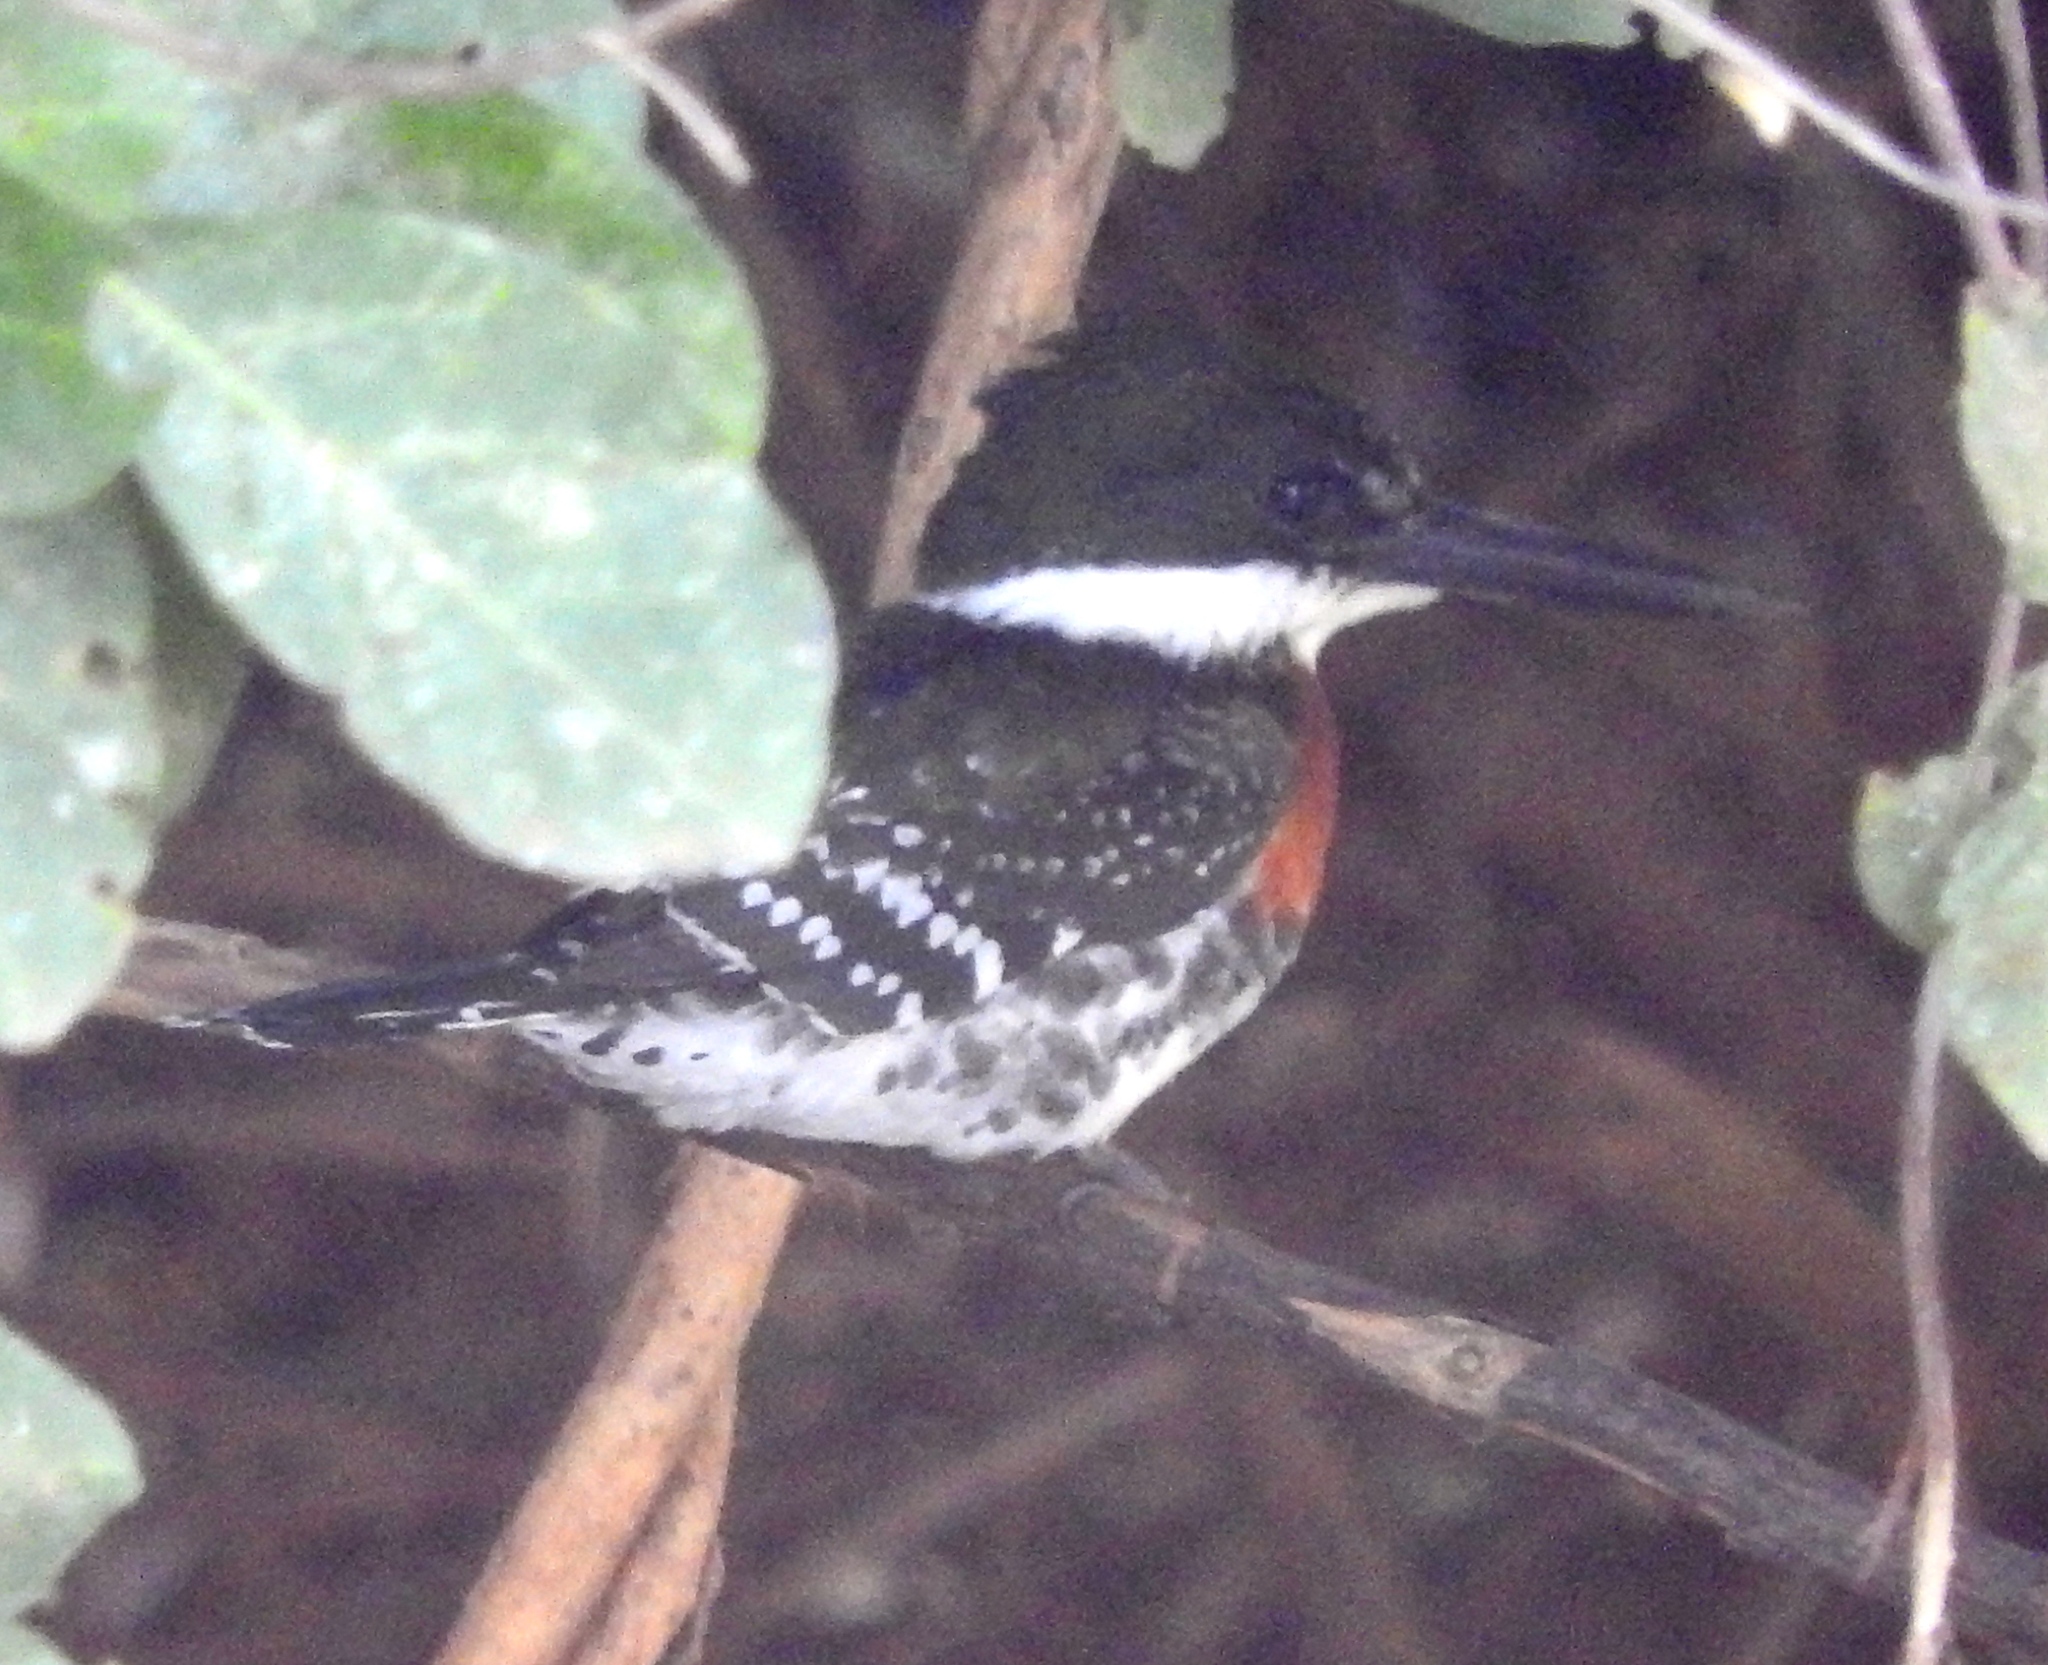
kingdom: Animalia
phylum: Chordata
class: Aves
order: Coraciiformes
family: Alcedinidae
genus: Chloroceryle
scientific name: Chloroceryle americana
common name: Green kingfisher
